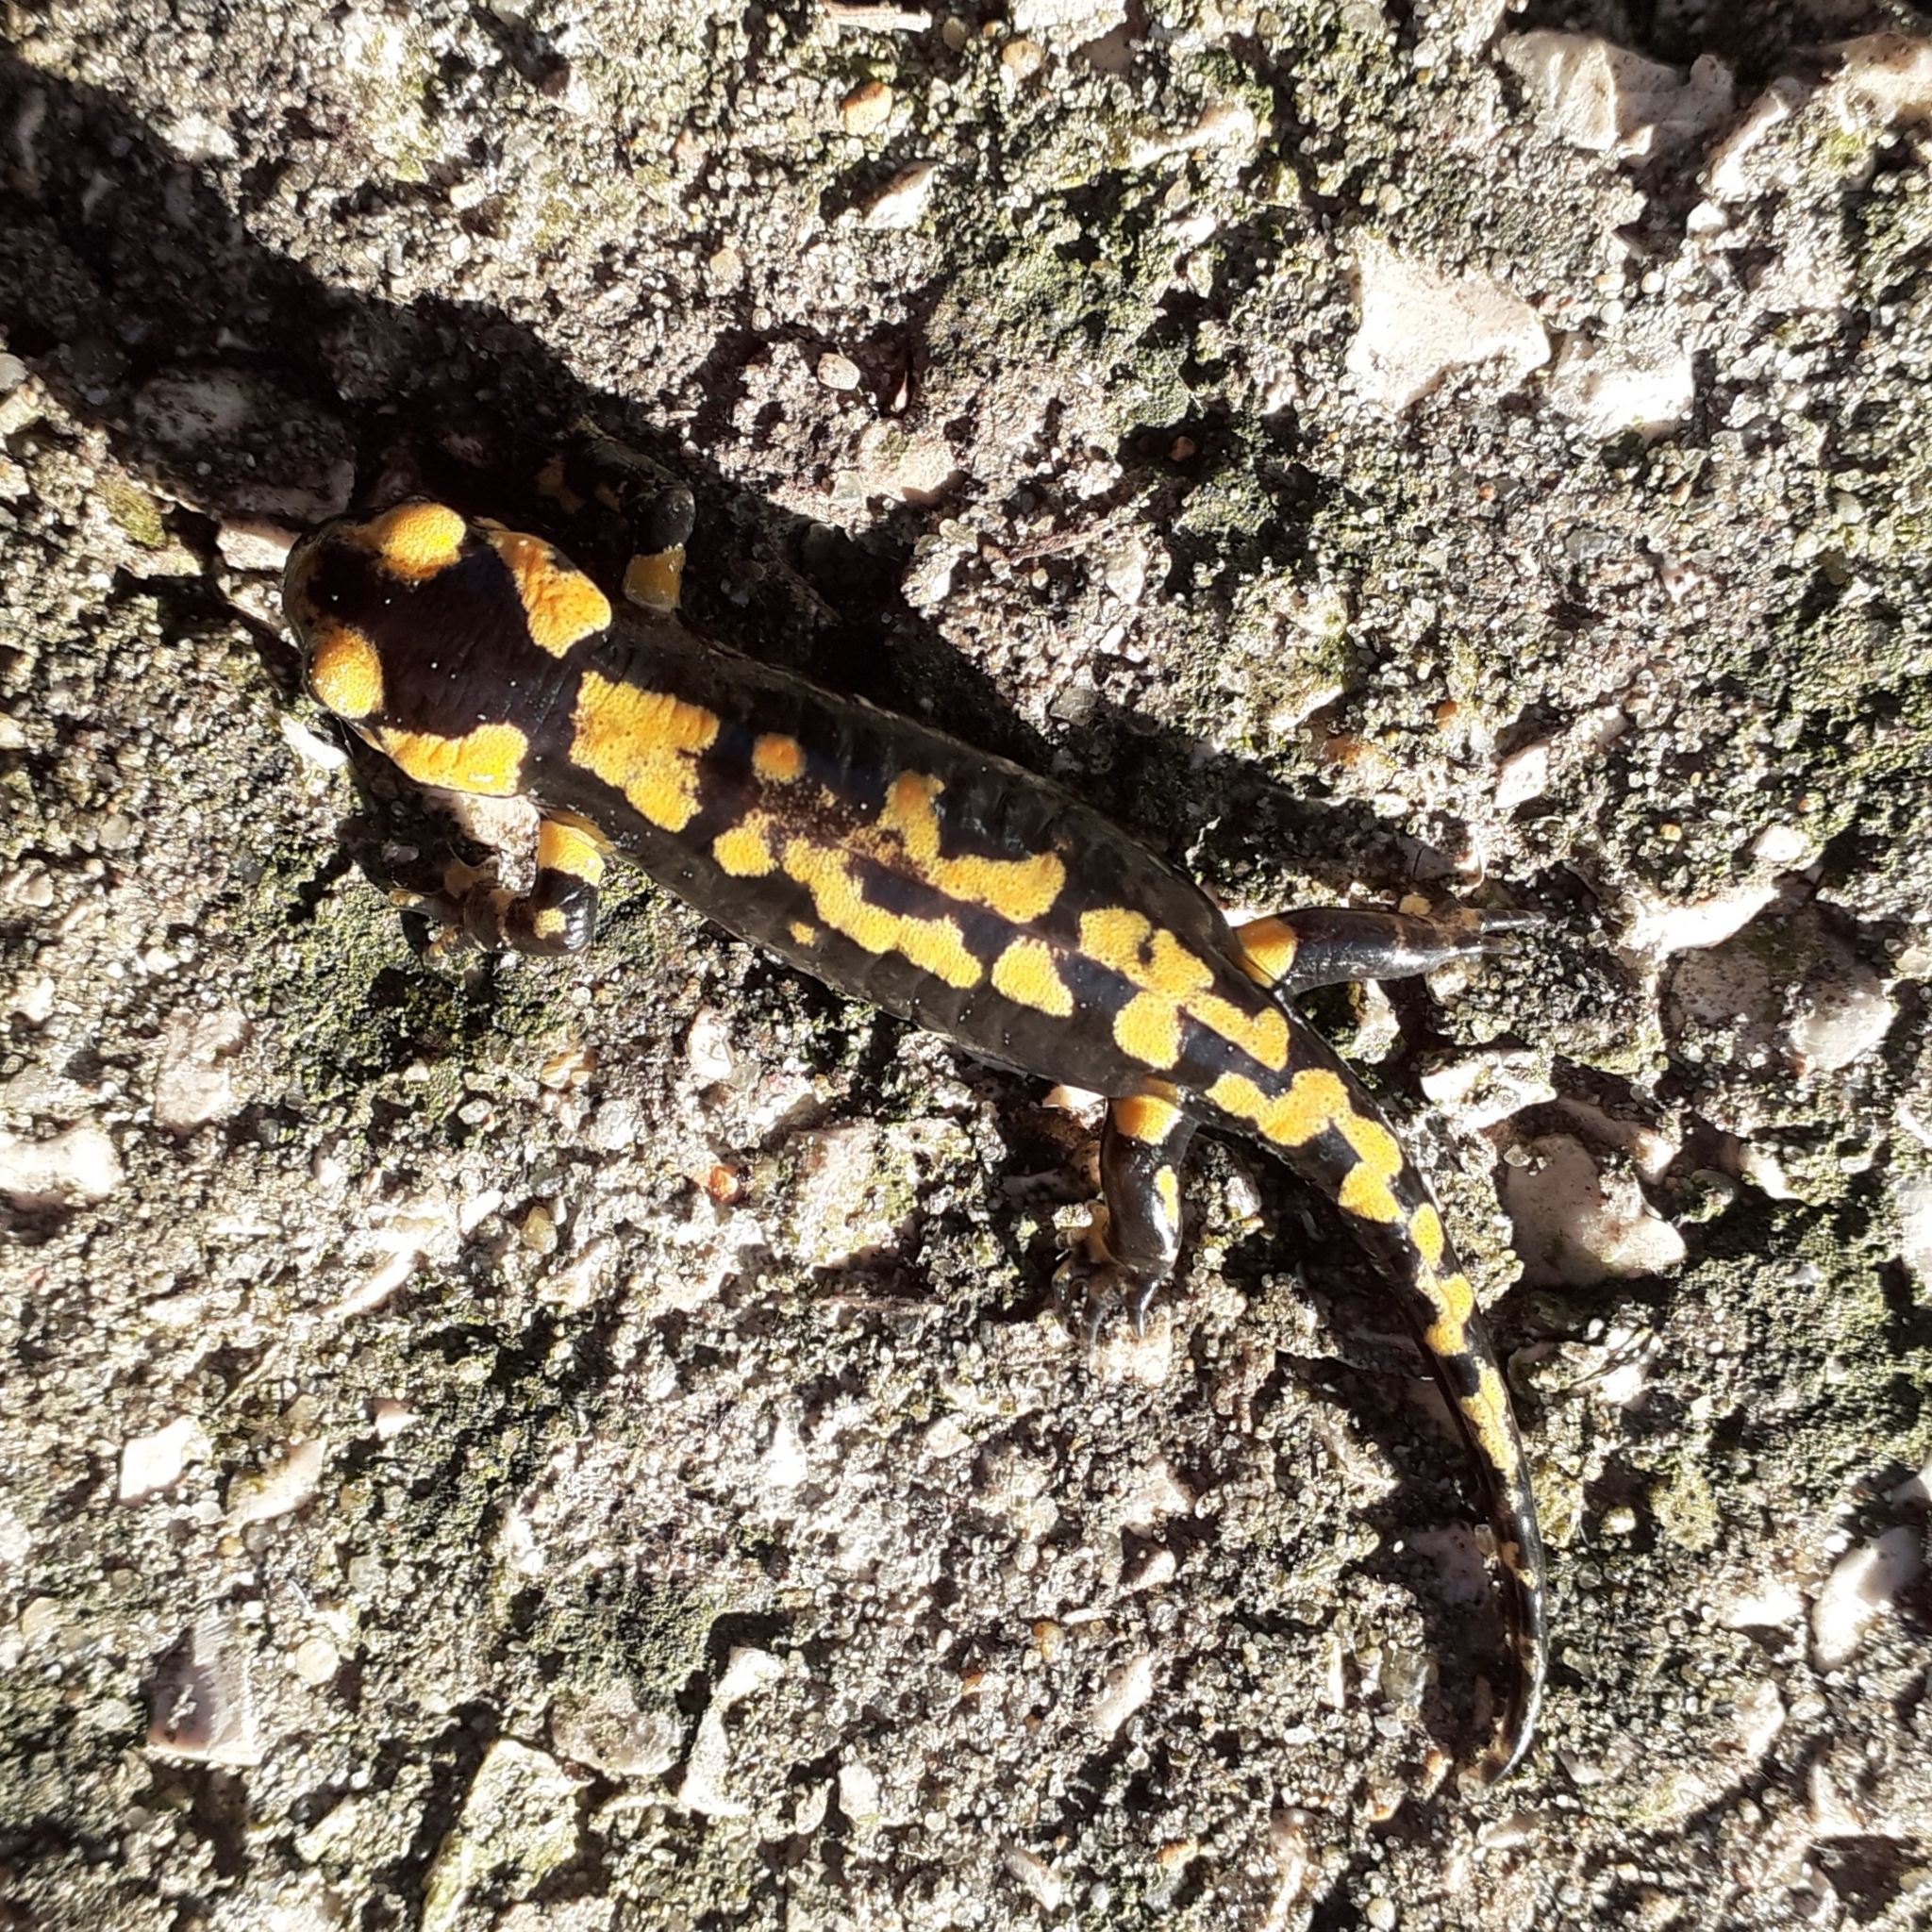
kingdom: Animalia
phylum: Chordata
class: Amphibia
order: Caudata
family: Salamandridae
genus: Salamandra
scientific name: Salamandra salamandra
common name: Fire salamander
